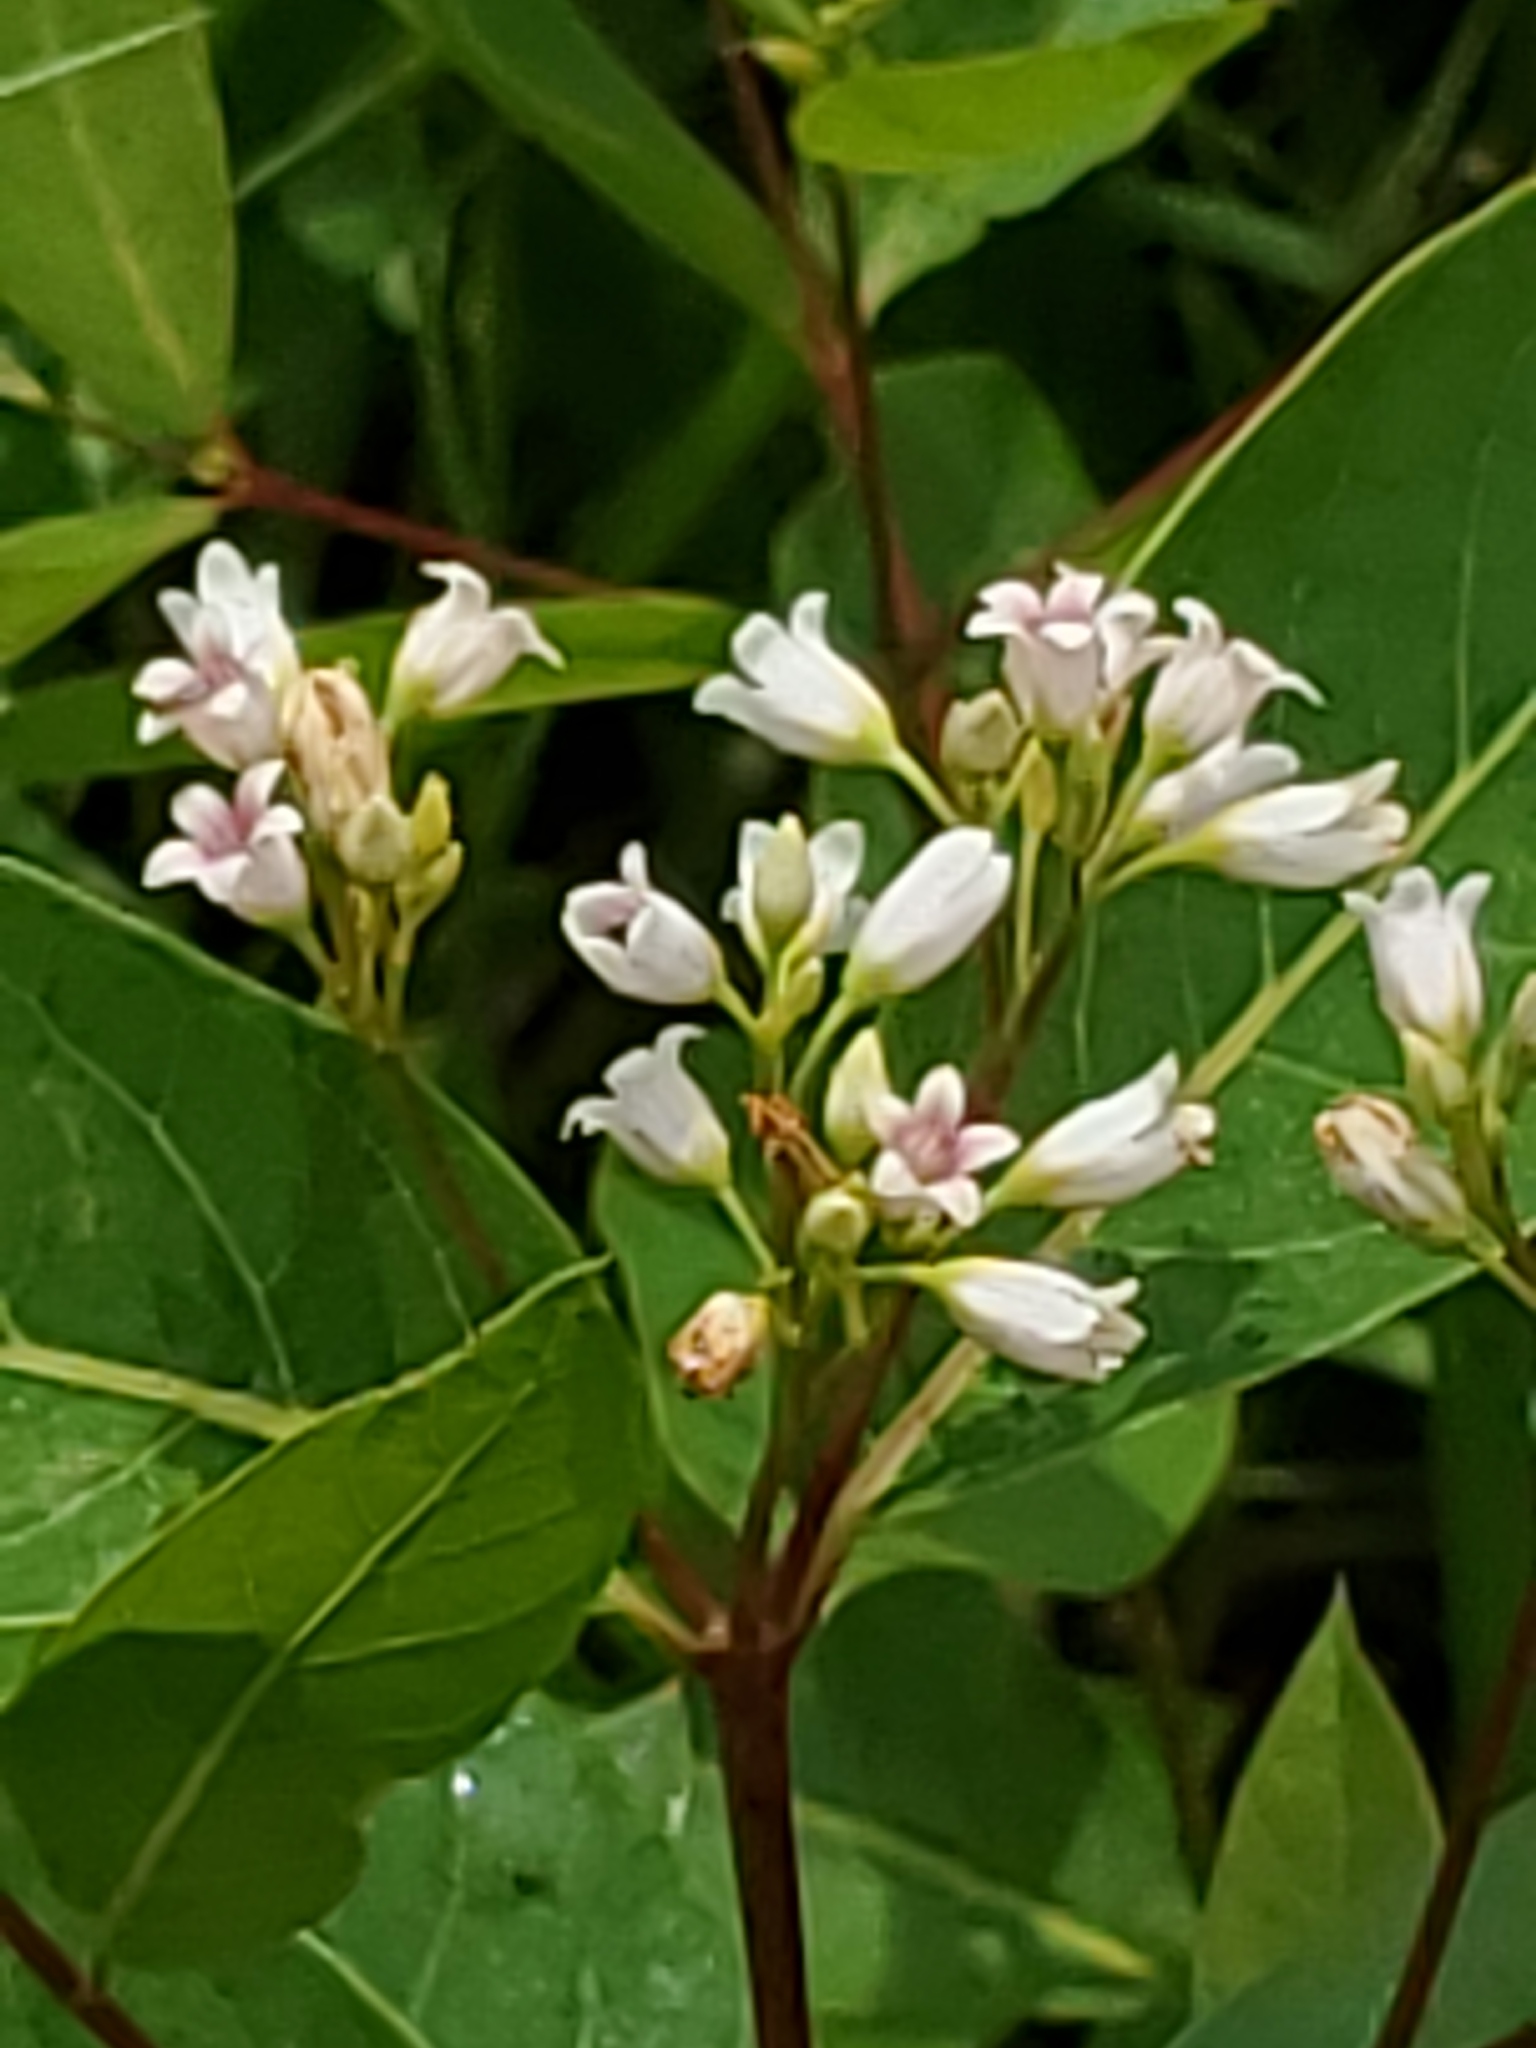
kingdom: Plantae
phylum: Tracheophyta
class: Magnoliopsida
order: Gentianales
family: Apocynaceae
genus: Apocynum
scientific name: Apocynum androsaemifolium
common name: Spreading dogbane
